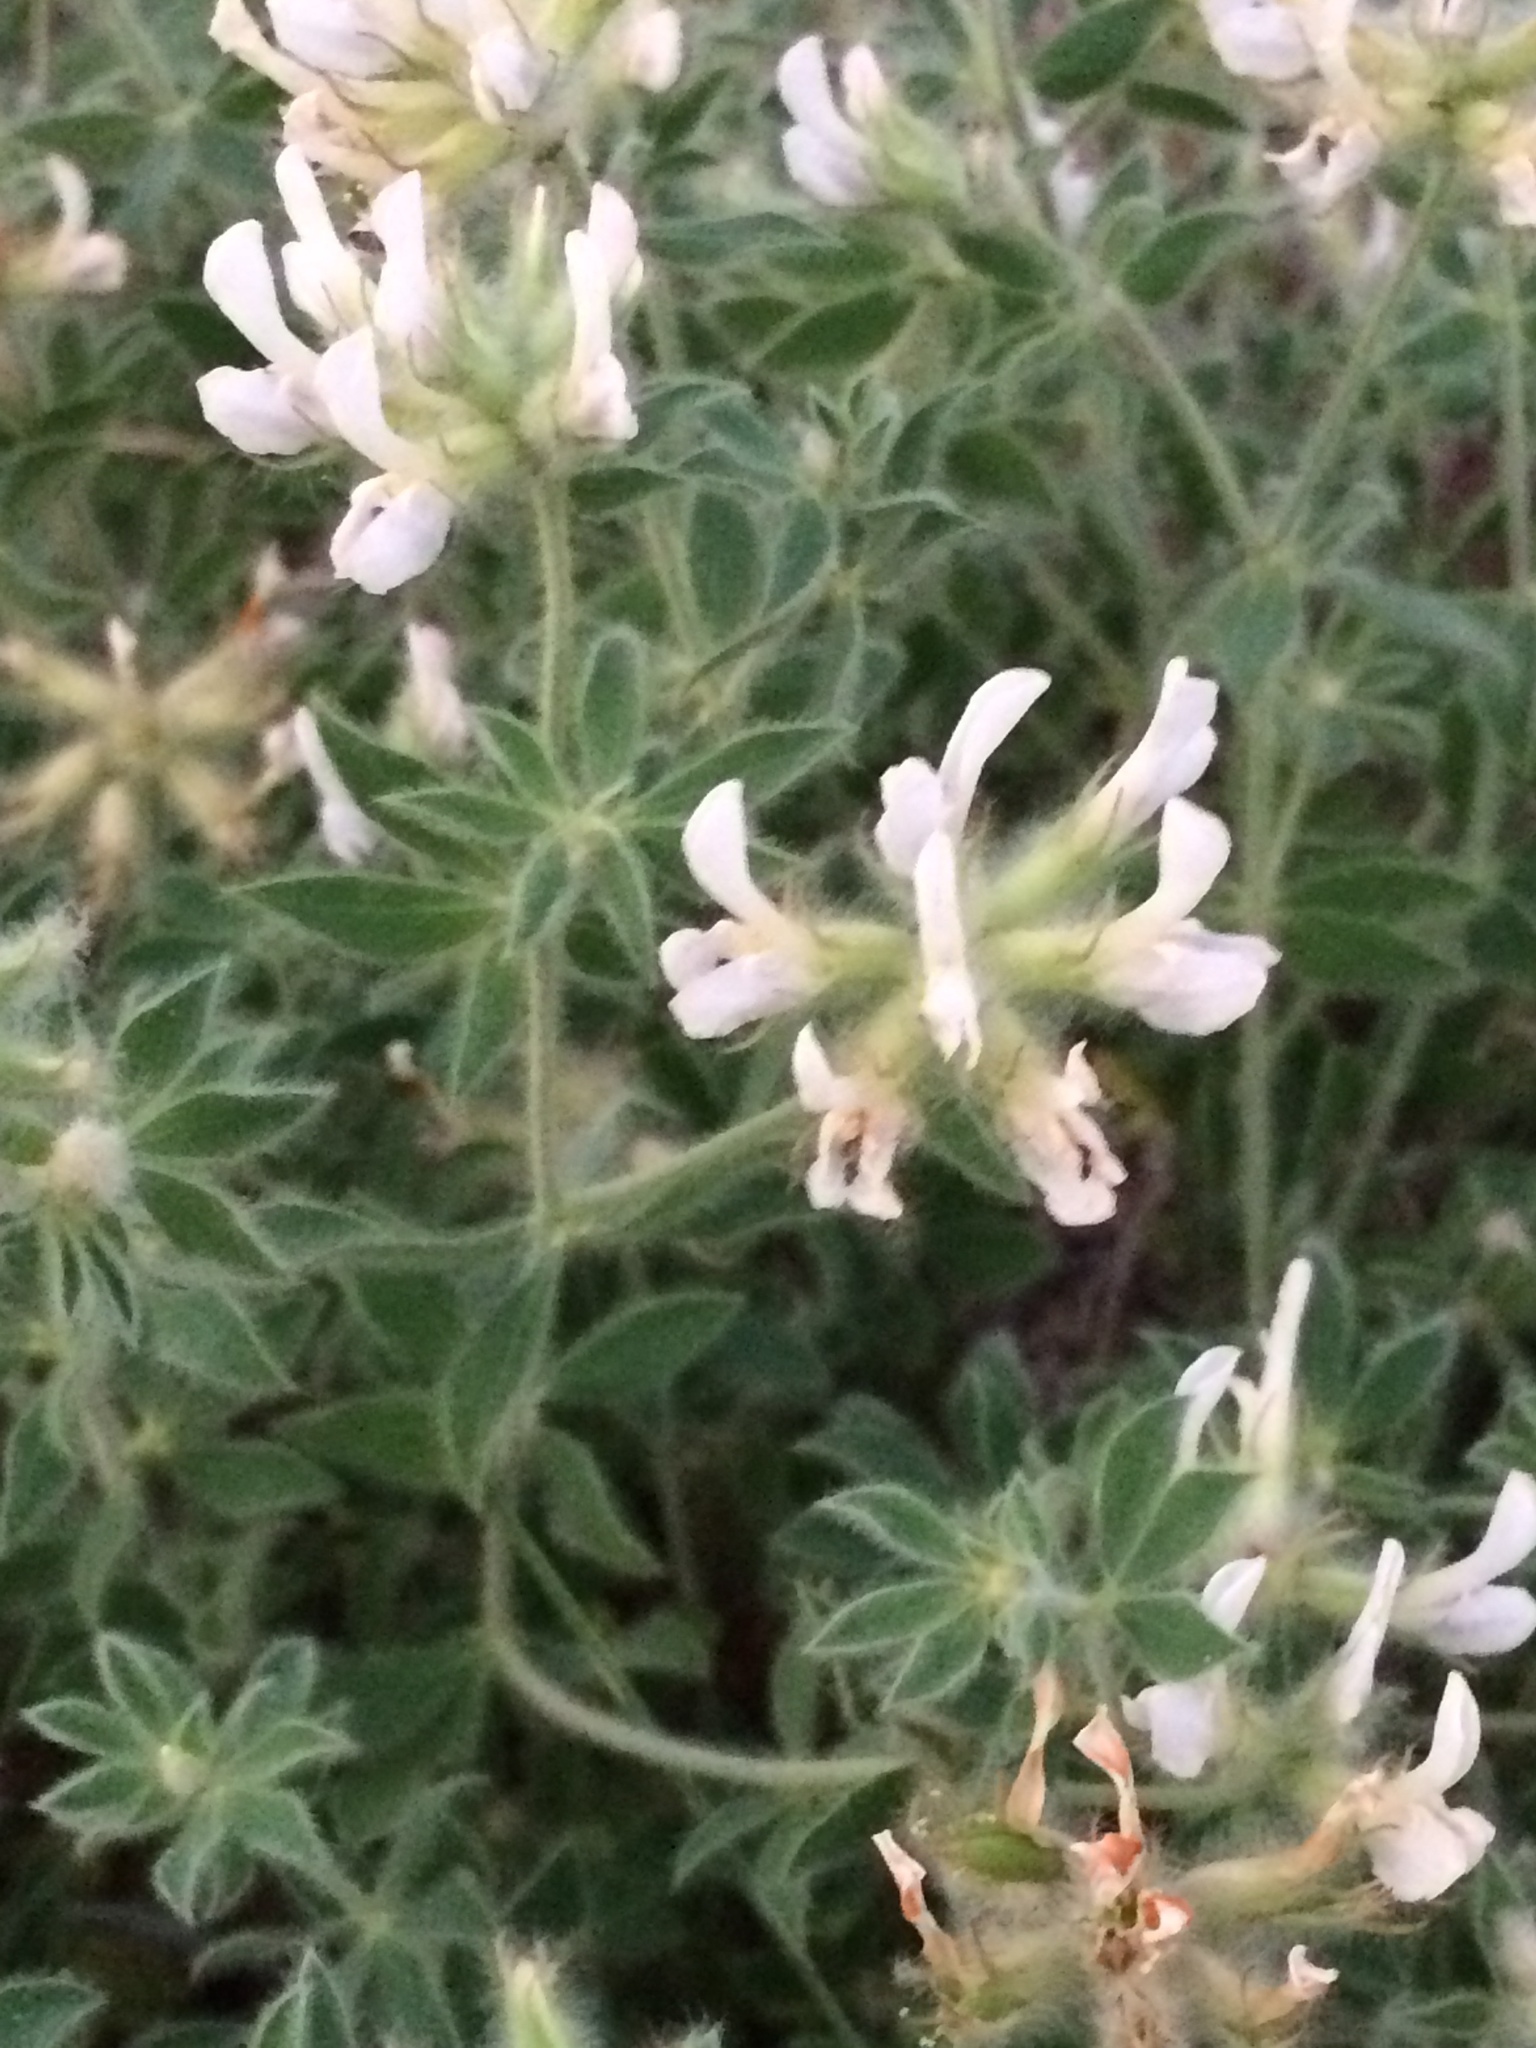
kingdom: Plantae
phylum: Tracheophyta
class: Magnoliopsida
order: Fabales
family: Fabaceae
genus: Lotus
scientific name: Lotus hirsutus
